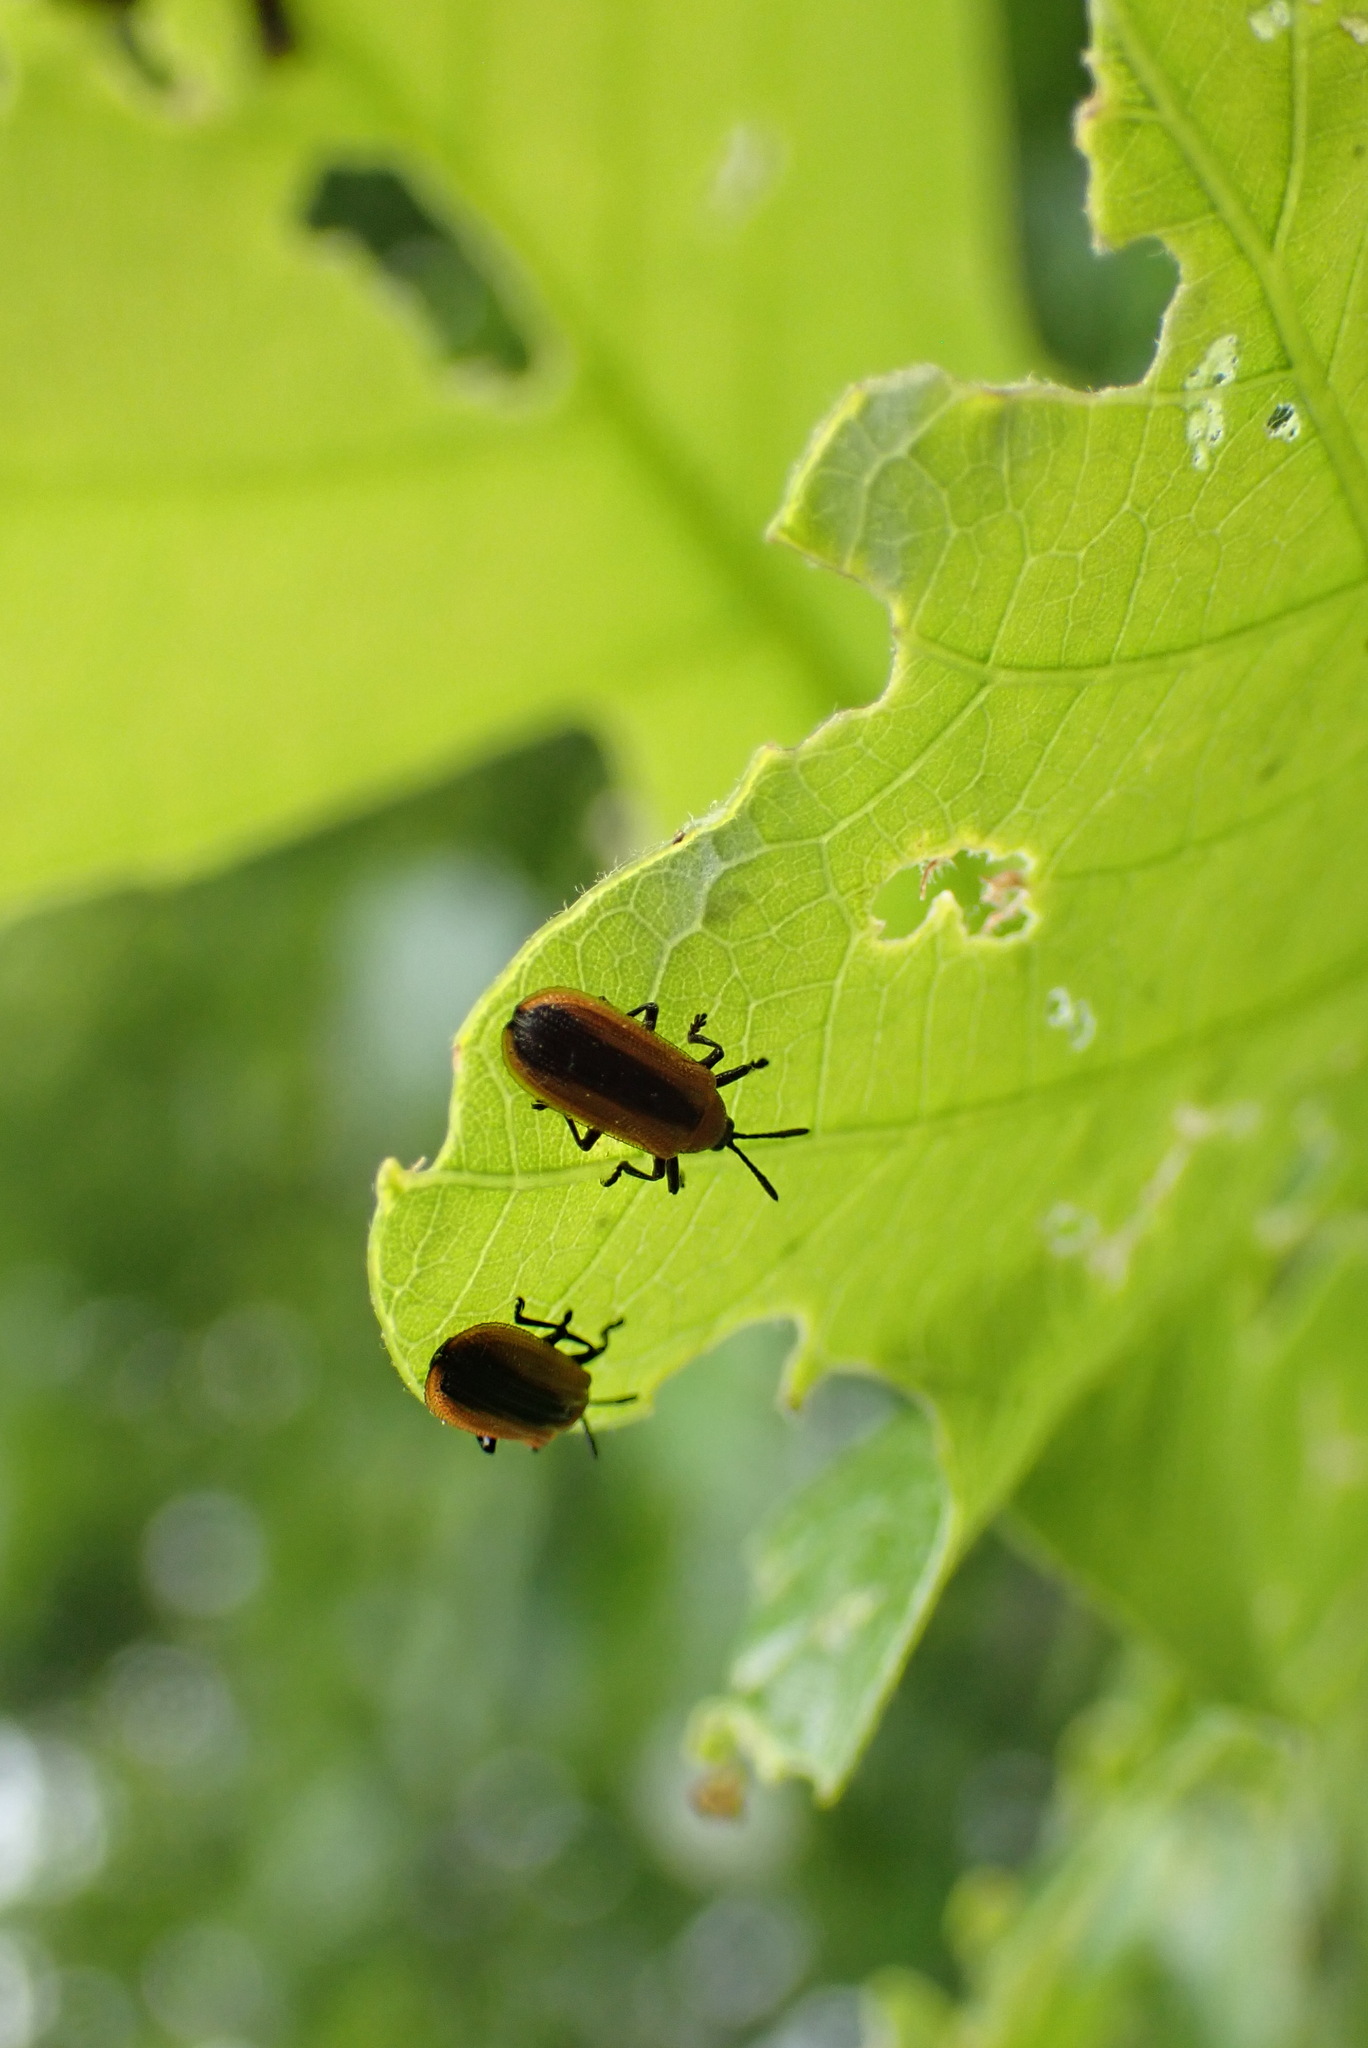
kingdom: Animalia
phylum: Arthropoda
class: Insecta
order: Coleoptera
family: Chrysomelidae
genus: Odontota
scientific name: Odontota dorsalis
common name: Locust leaf-miner beetle
